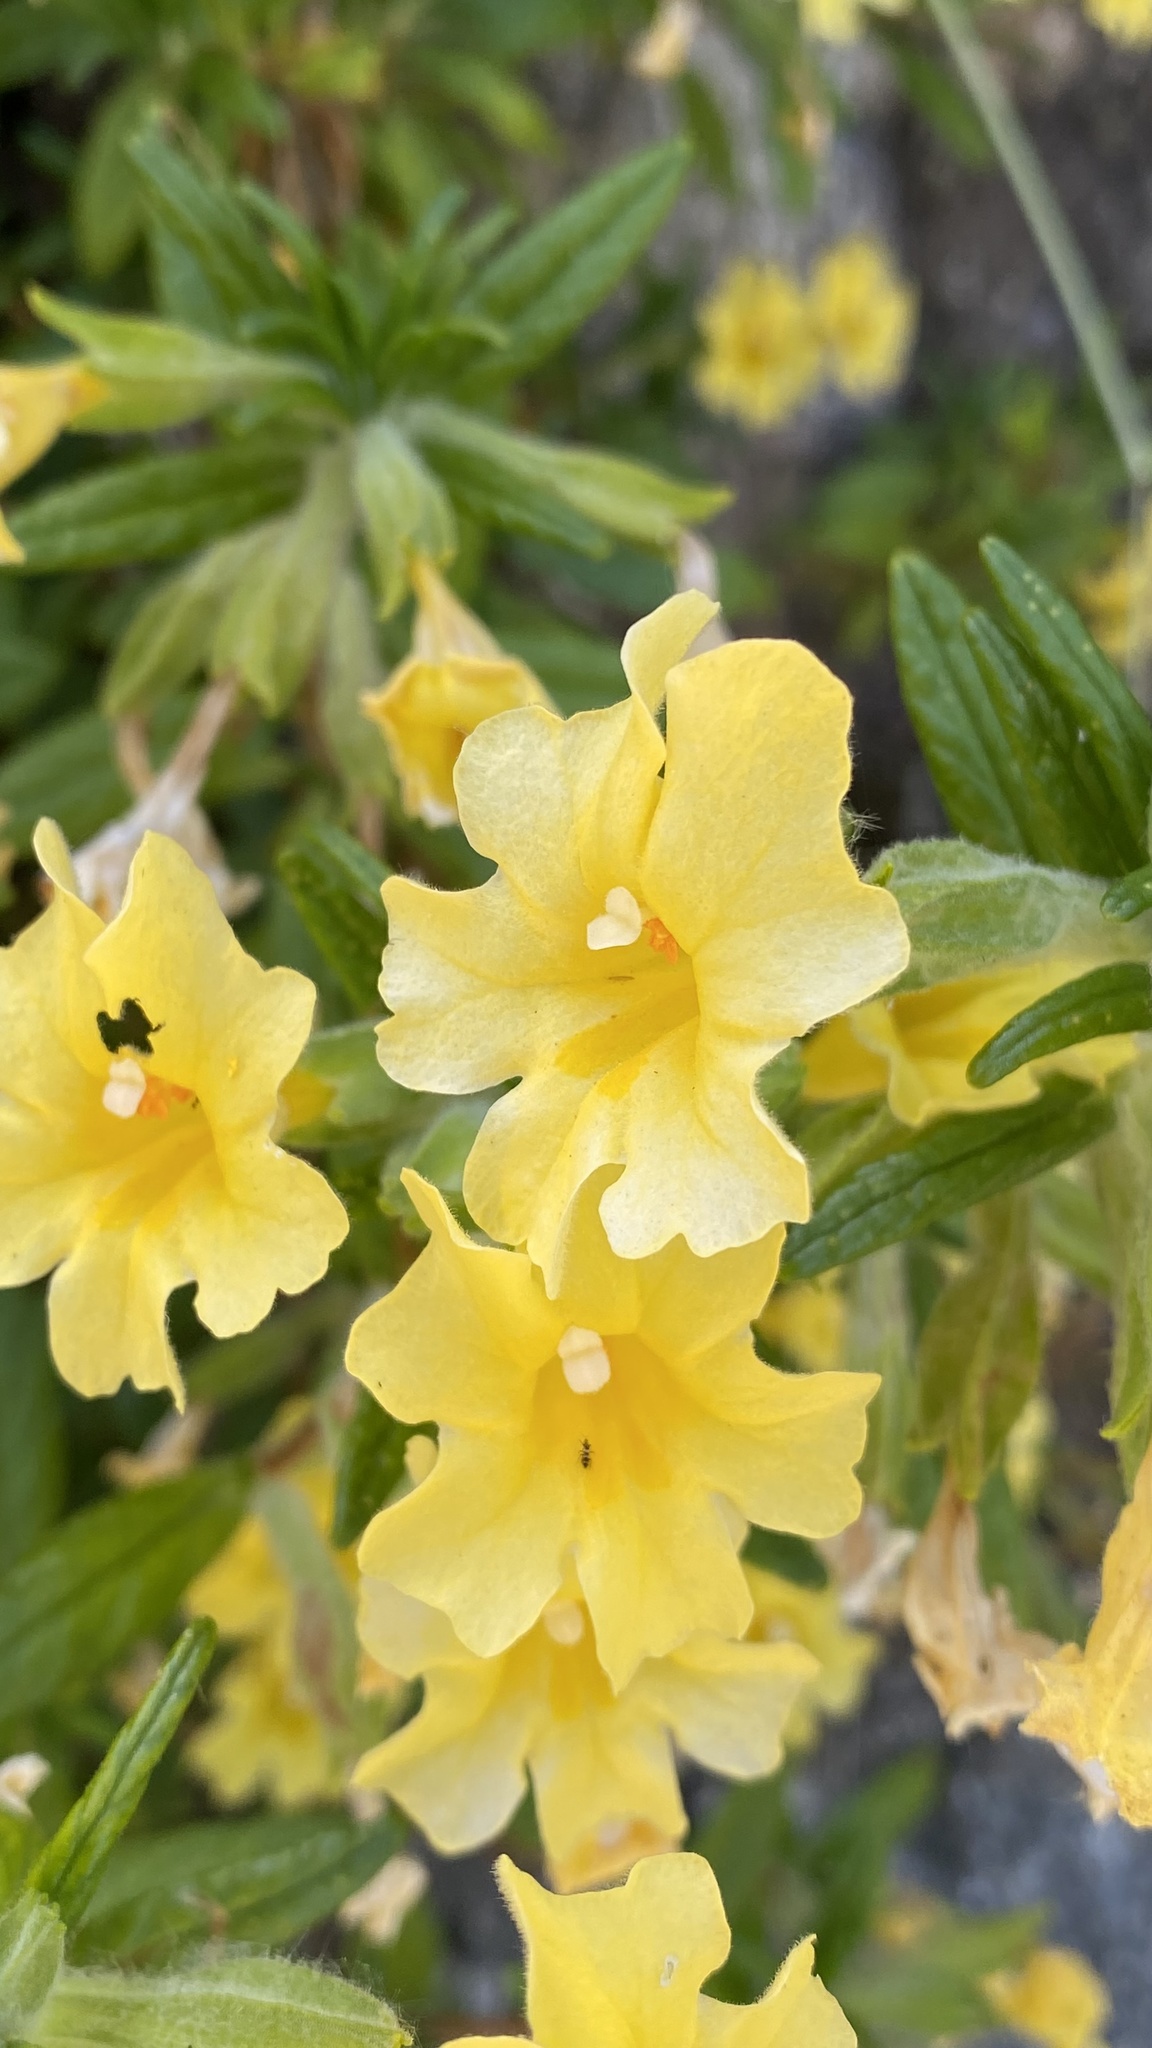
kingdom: Plantae
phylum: Tracheophyta
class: Magnoliopsida
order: Lamiales
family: Phrymaceae
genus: Diplacus
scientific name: Diplacus calycinus
